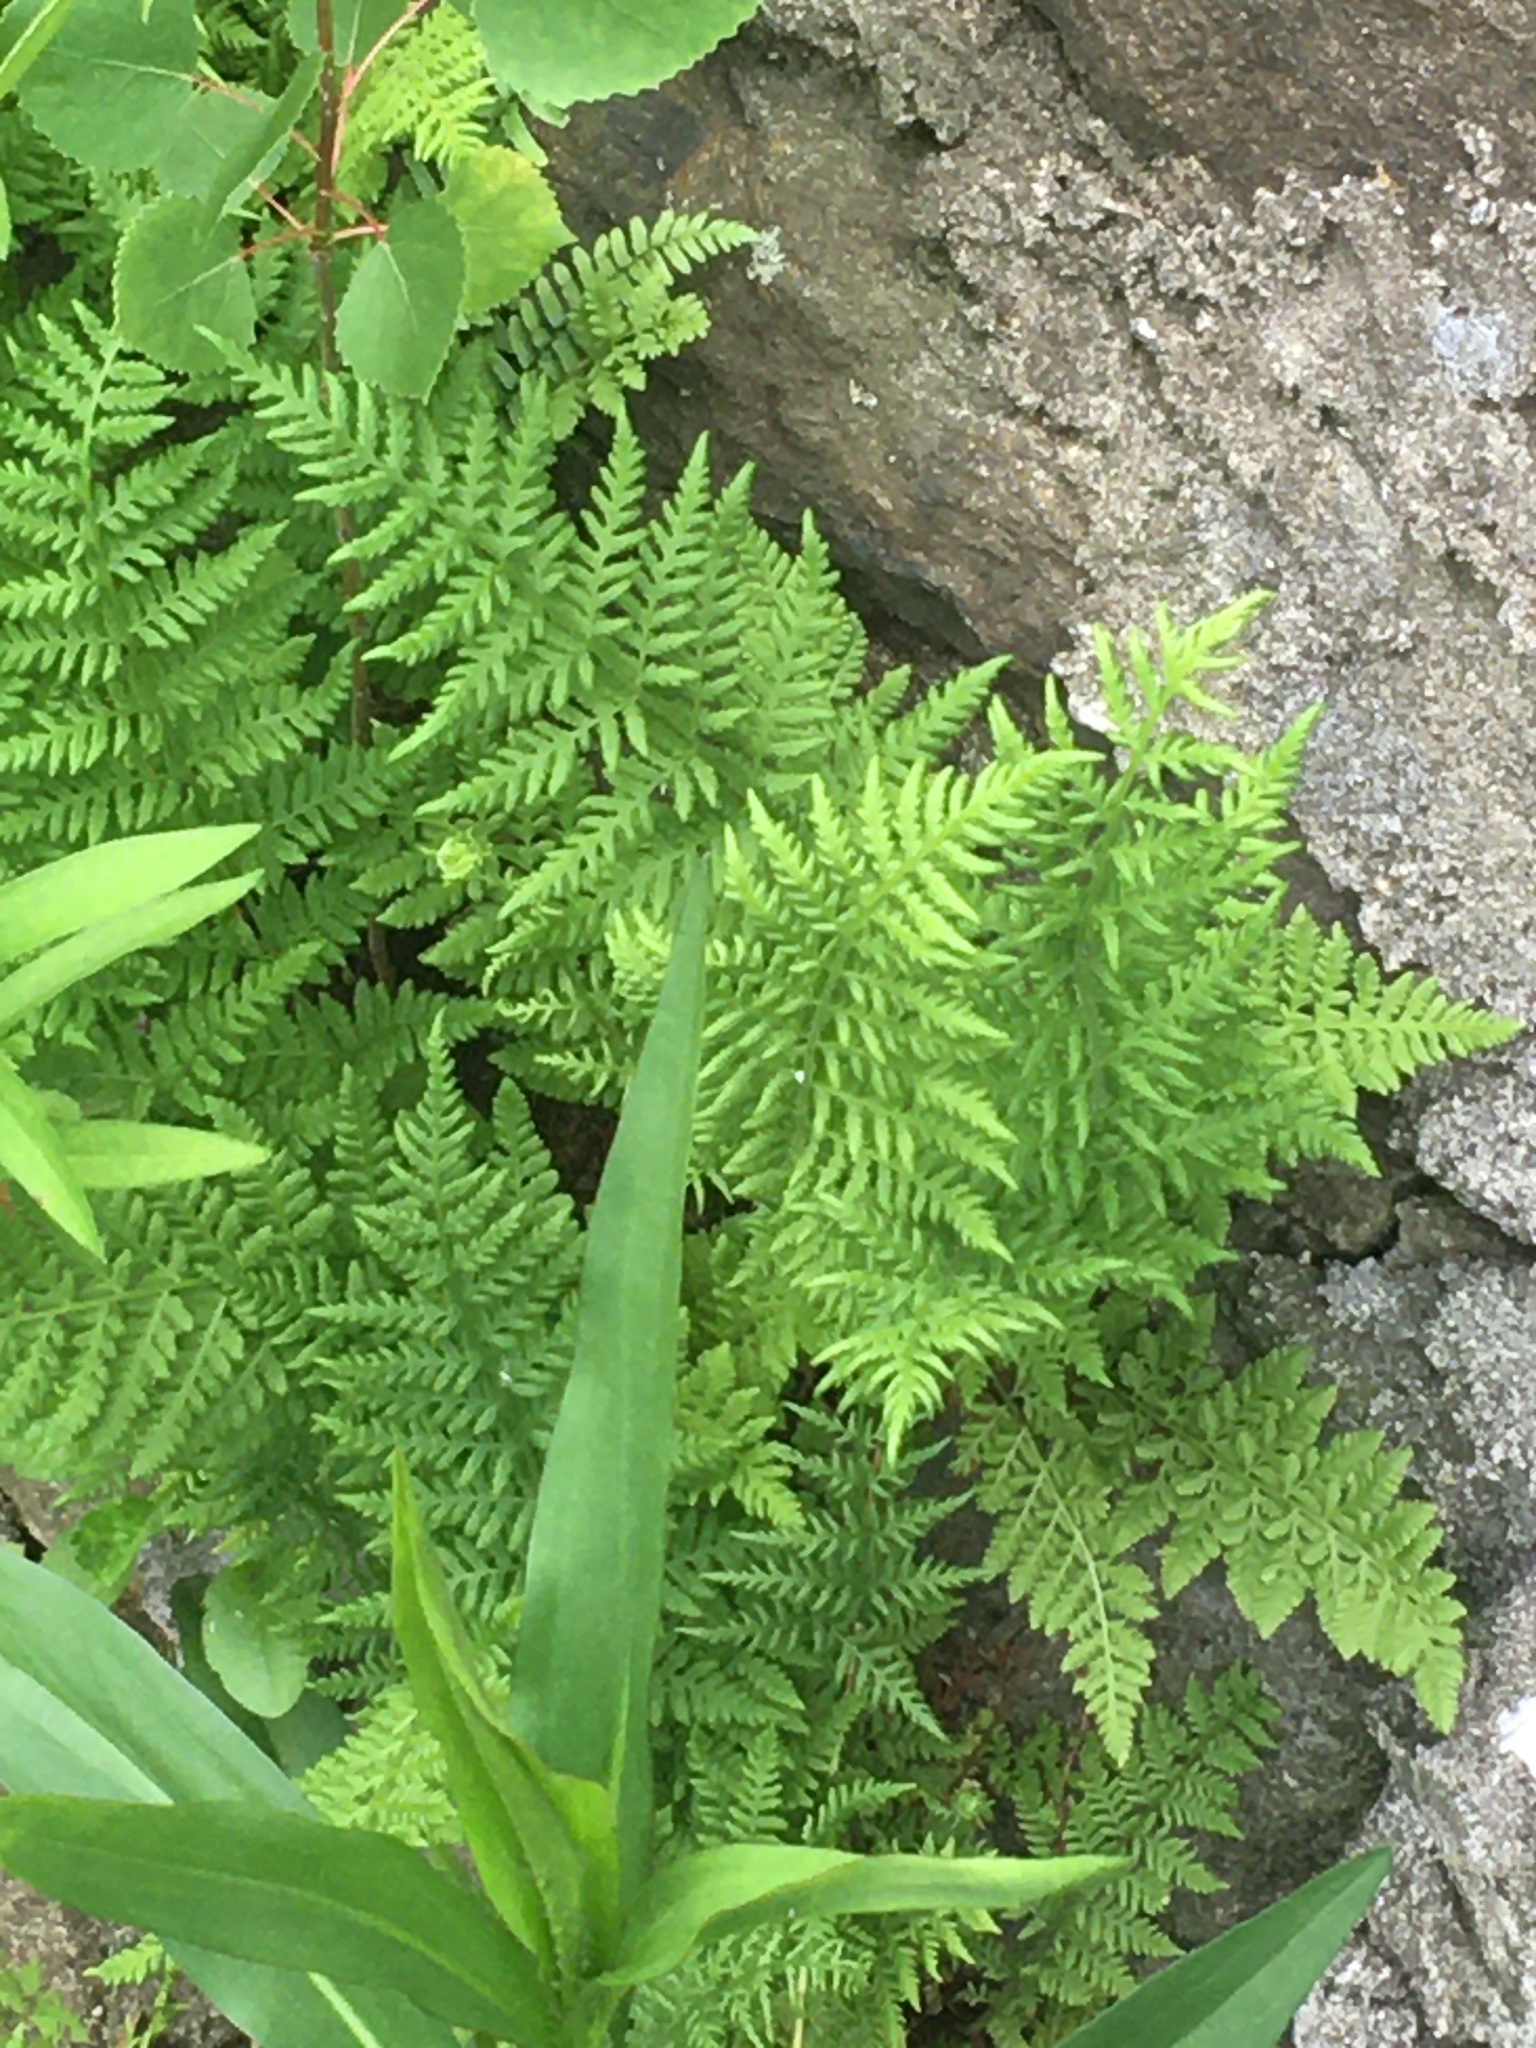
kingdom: Plantae
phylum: Tracheophyta
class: Polypodiopsida
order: Polypodiales
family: Dennstaedtiaceae
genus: Sitobolium
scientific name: Sitobolium punctilobum
